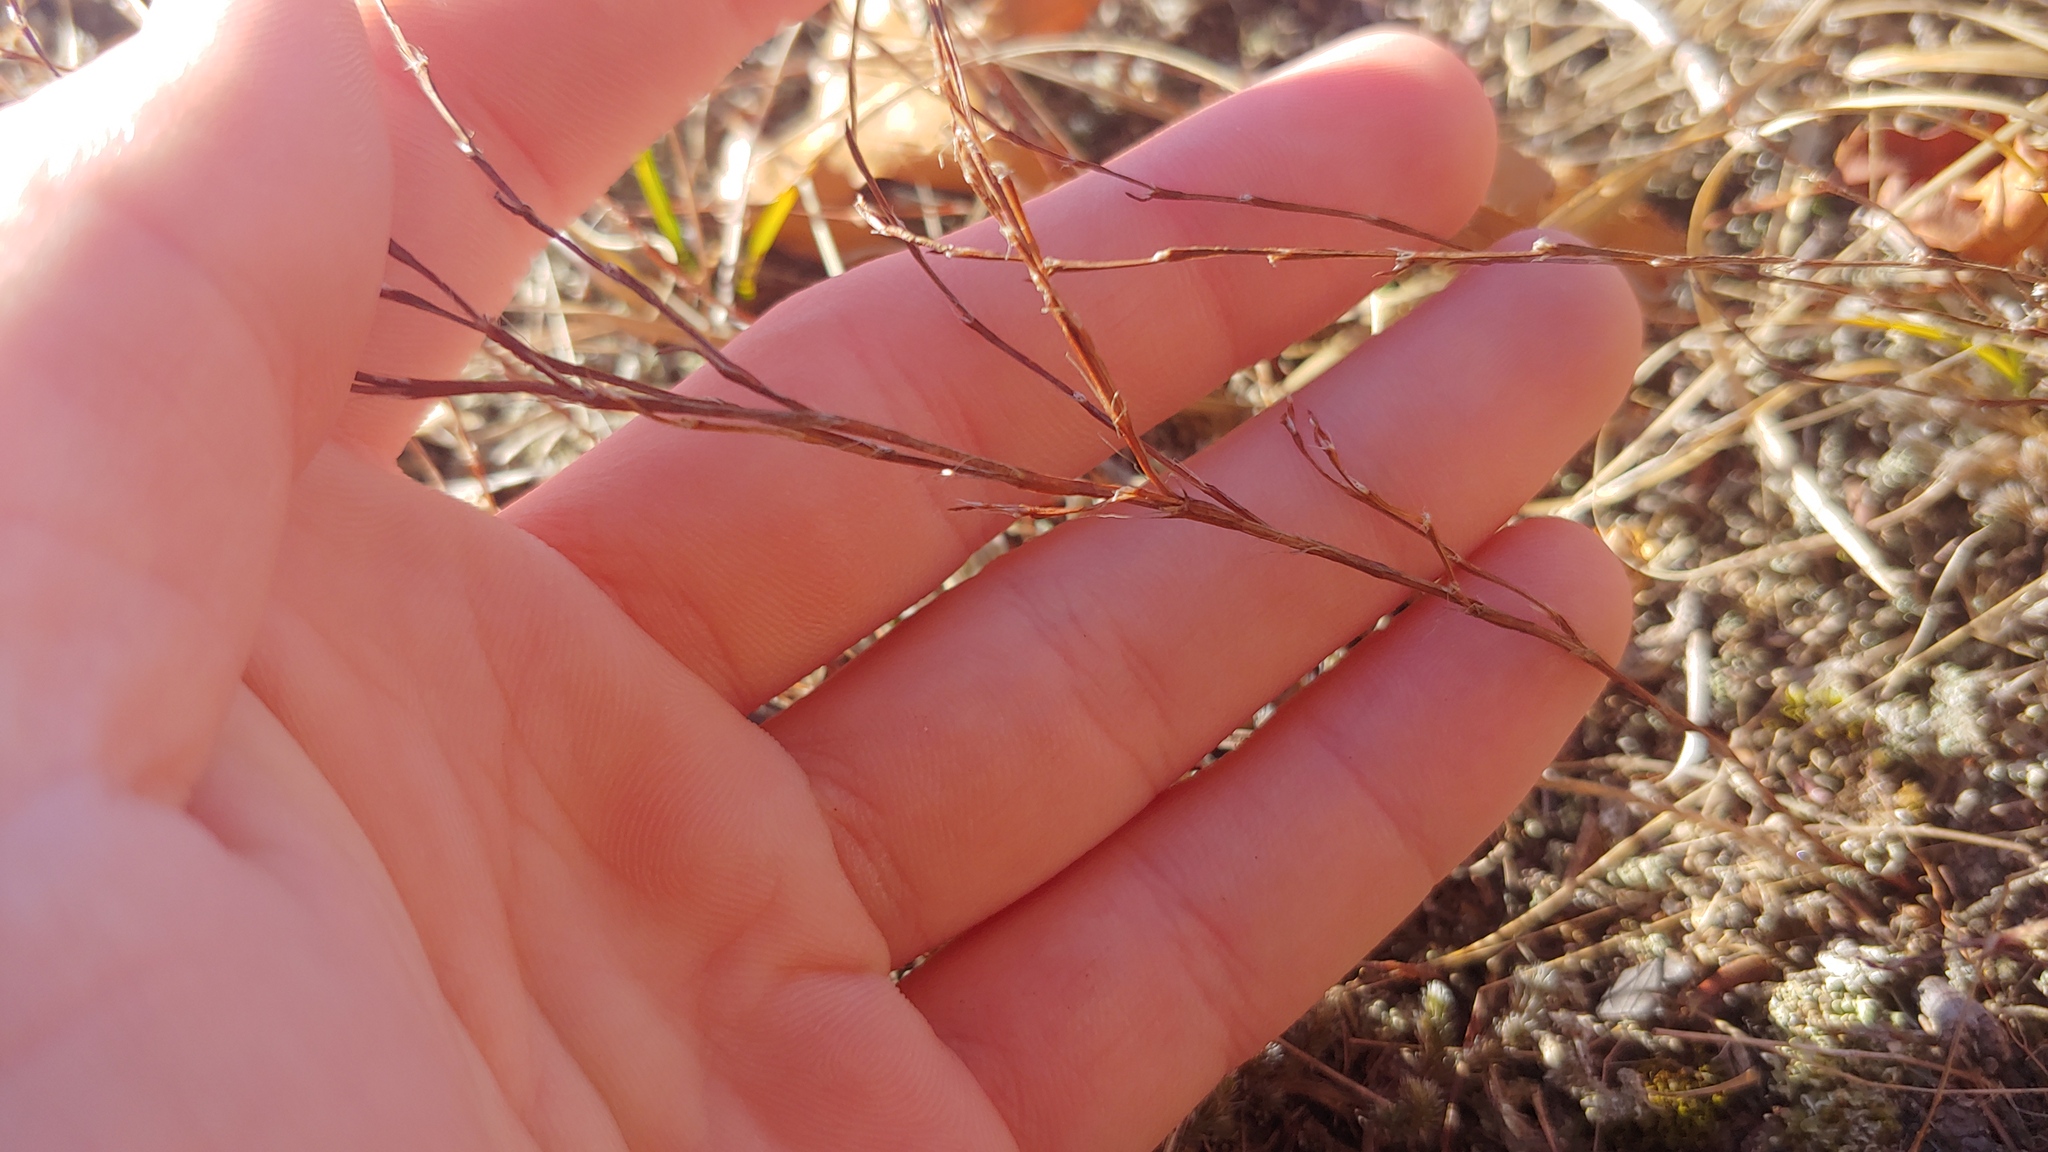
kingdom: Plantae
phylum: Tracheophyta
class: Magnoliopsida
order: Caryophyllales
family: Polygonaceae
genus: Polygonum
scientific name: Polygonum tenue
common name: Pleat-leaved knotweed
